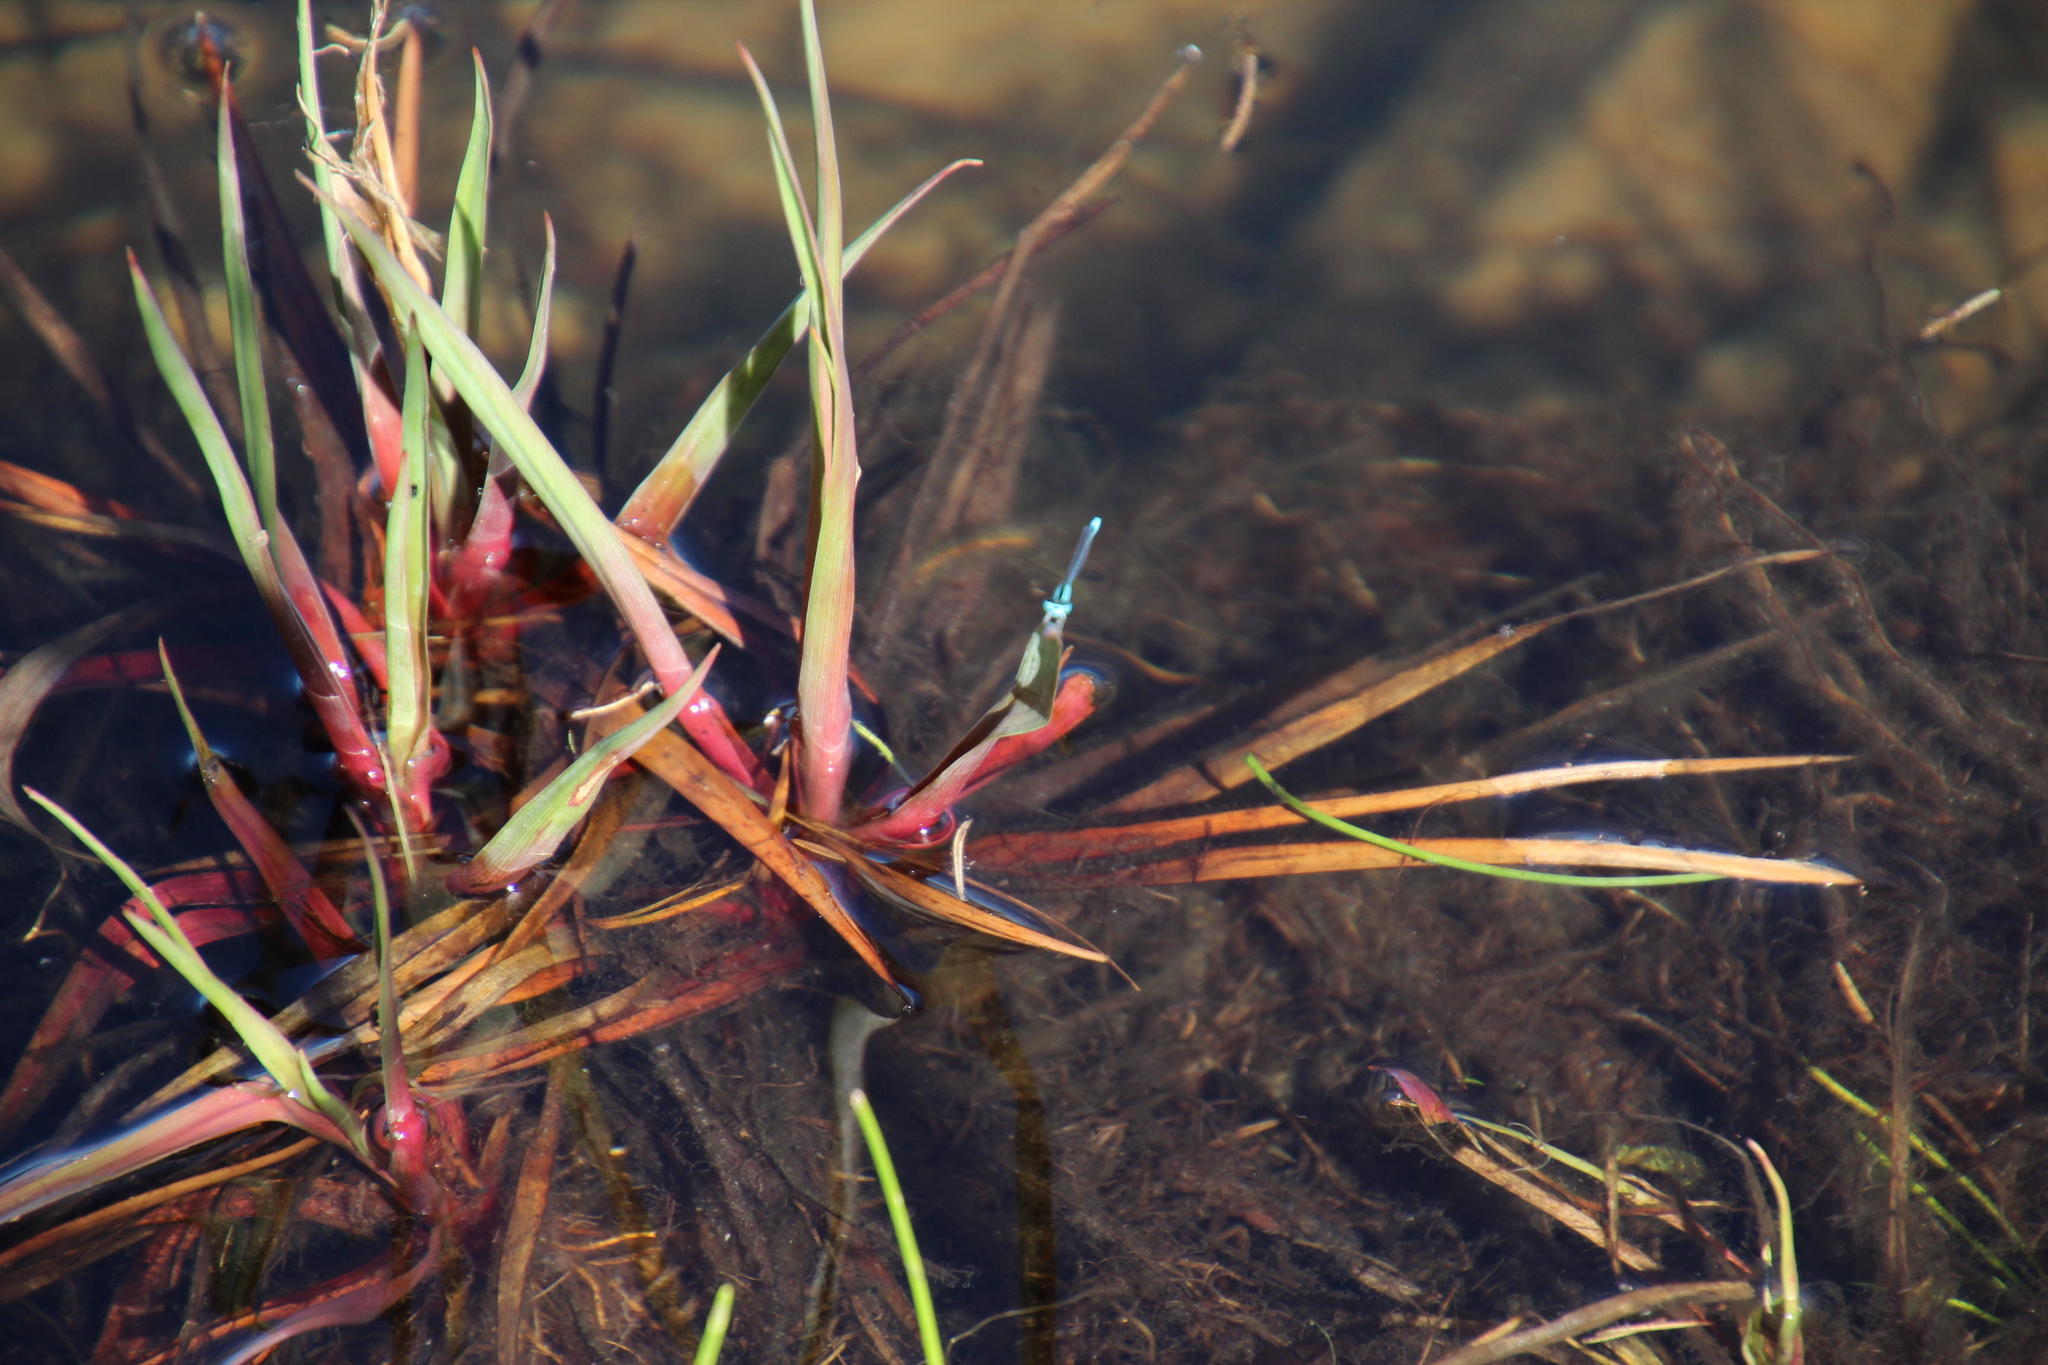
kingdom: Plantae
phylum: Tracheophyta
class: Liliopsida
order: Poales
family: Juncaceae
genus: Juncus
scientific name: Juncus lomatophyllus
